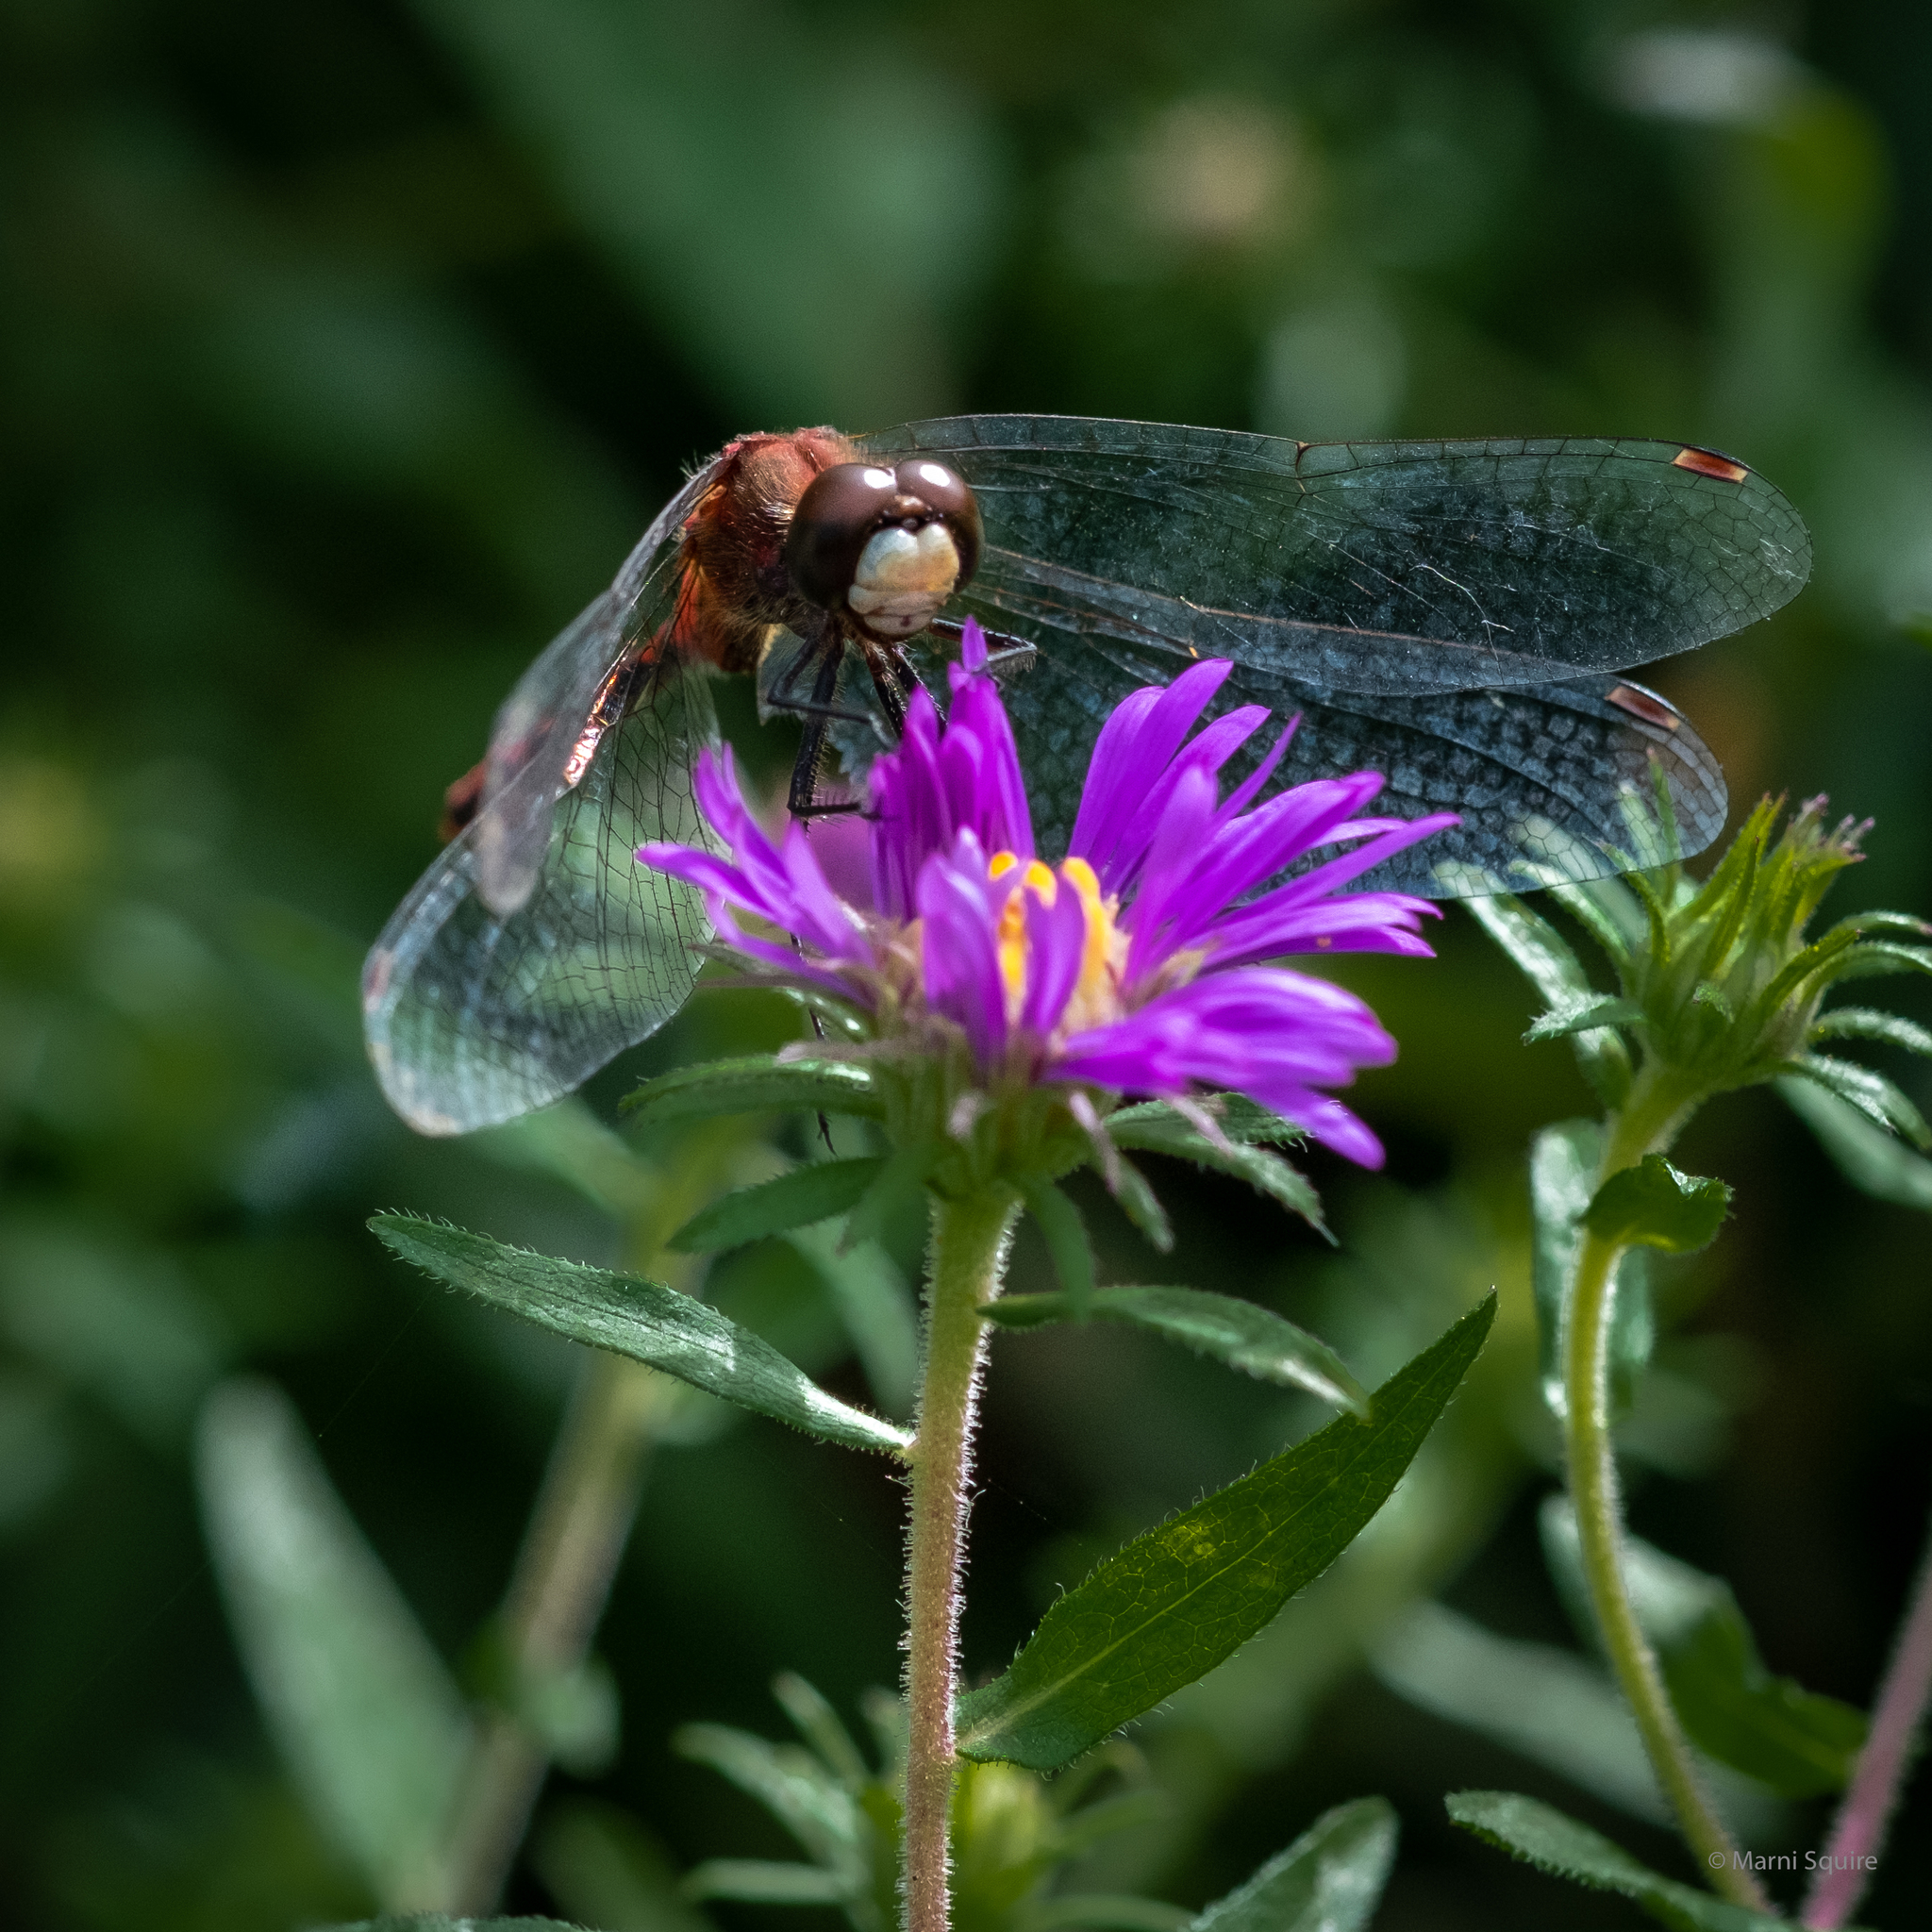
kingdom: Animalia
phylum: Arthropoda
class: Insecta
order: Odonata
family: Libellulidae
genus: Sympetrum
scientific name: Sympetrum obtrusum
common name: White-faced meadowhawk
